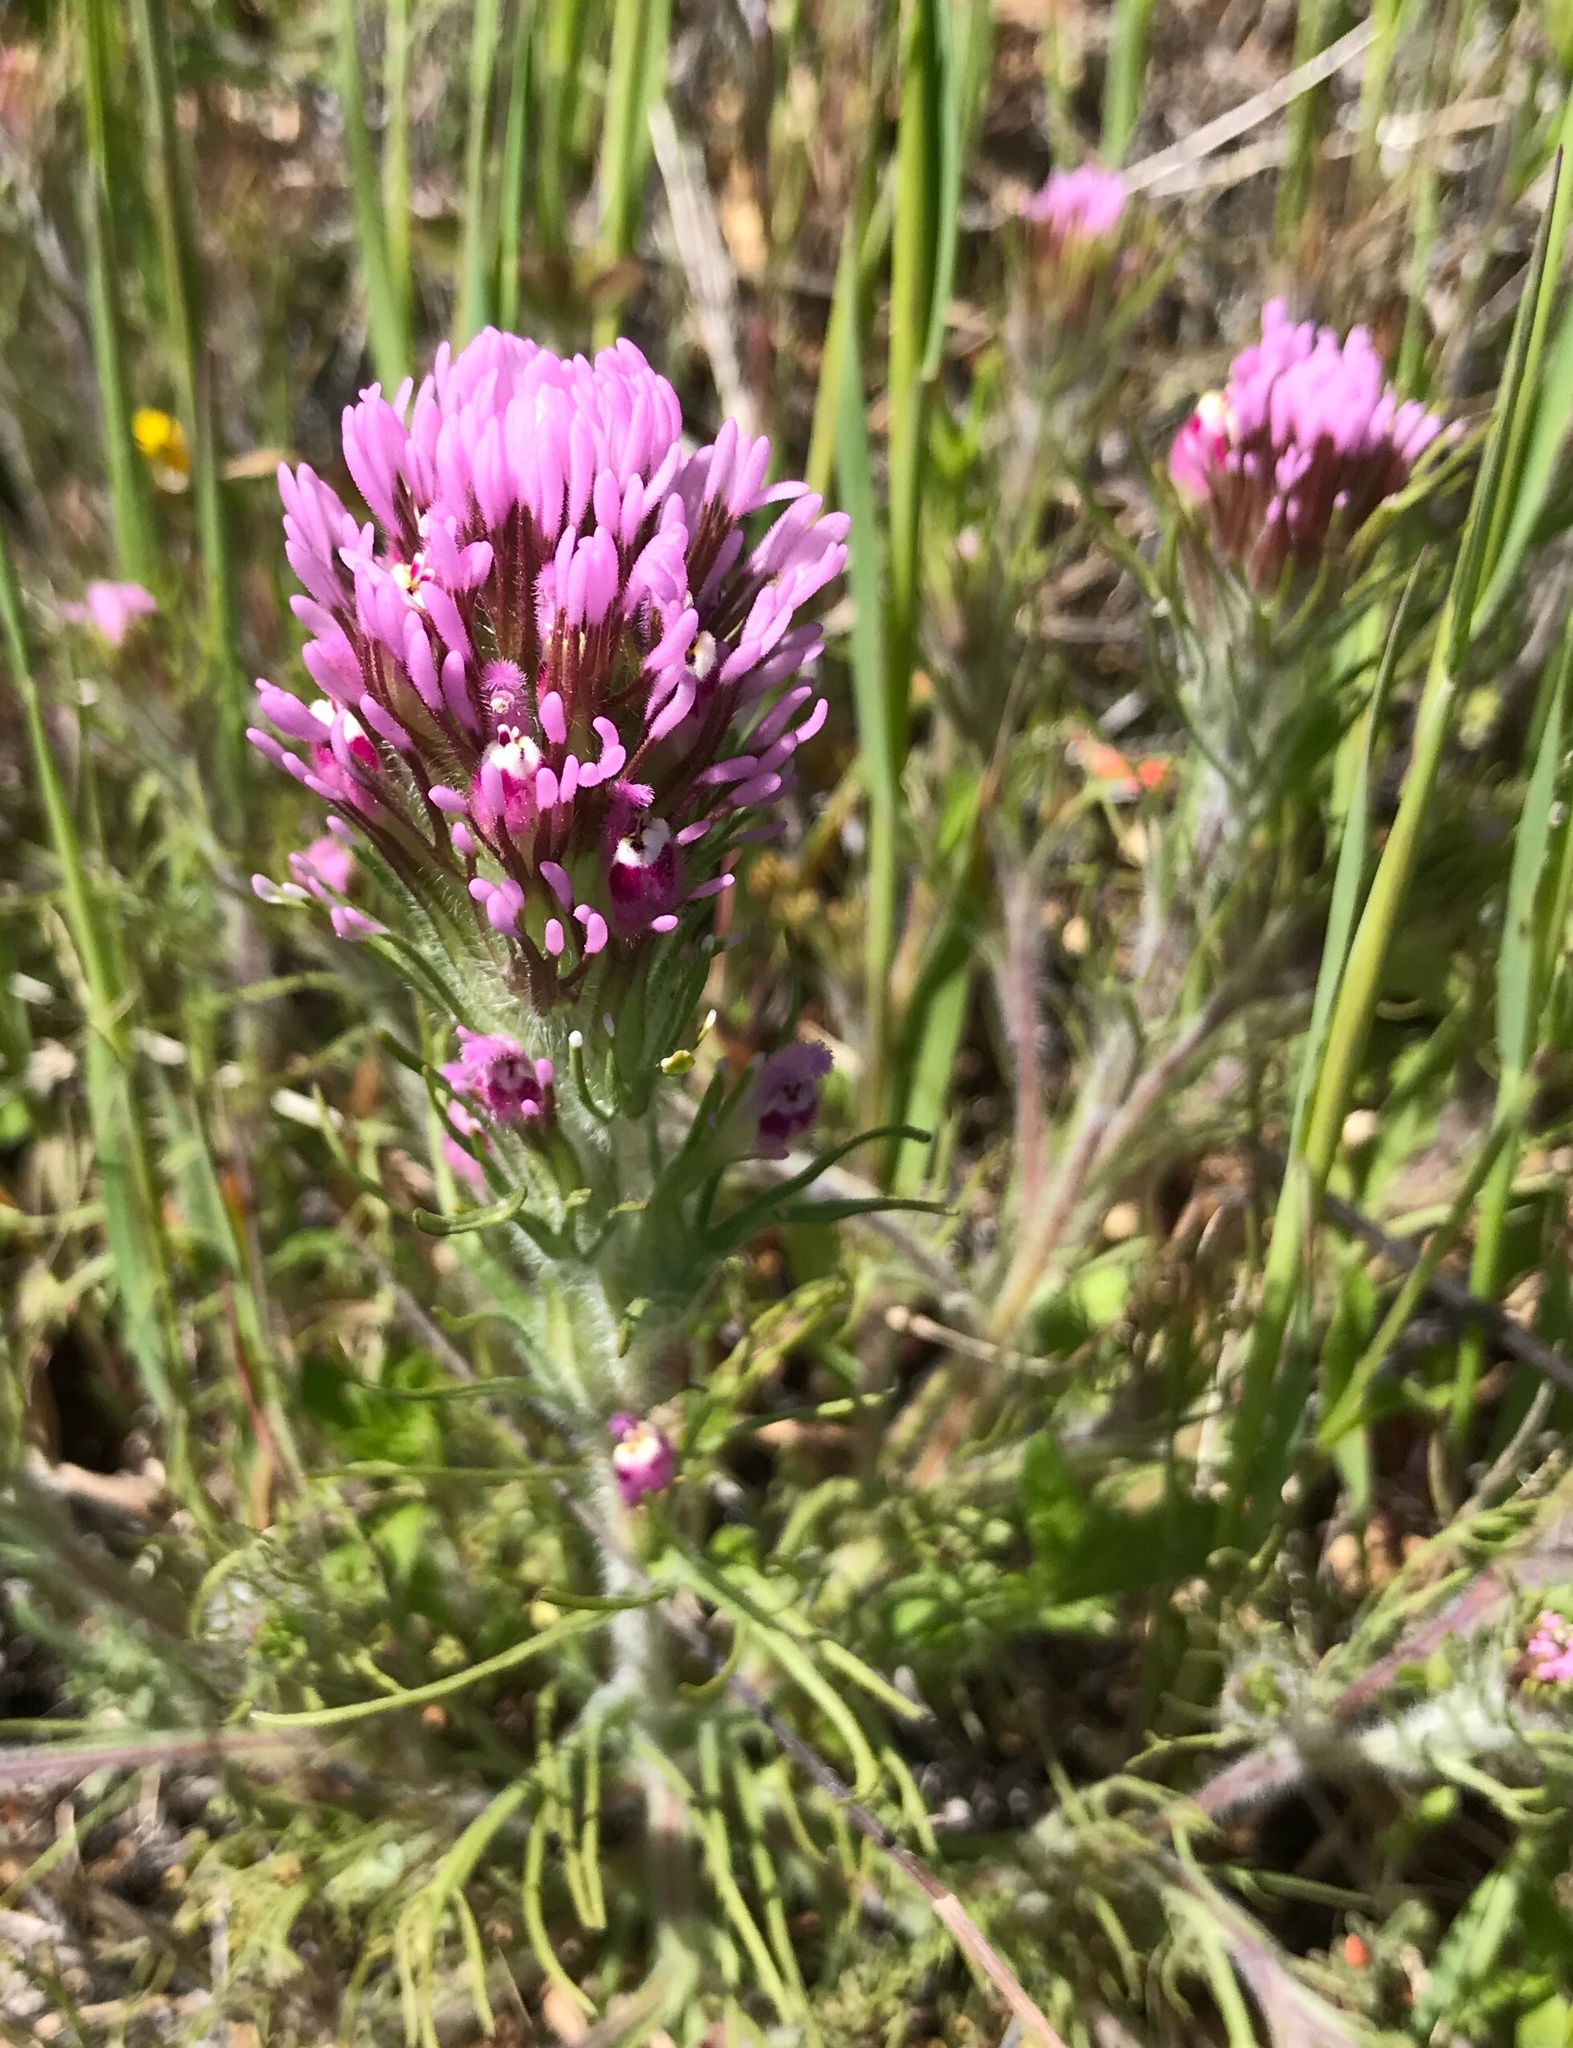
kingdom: Plantae
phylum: Tracheophyta
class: Magnoliopsida
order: Lamiales
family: Orobanchaceae
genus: Castilleja
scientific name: Castilleja exserta
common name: Purple owl-clover
